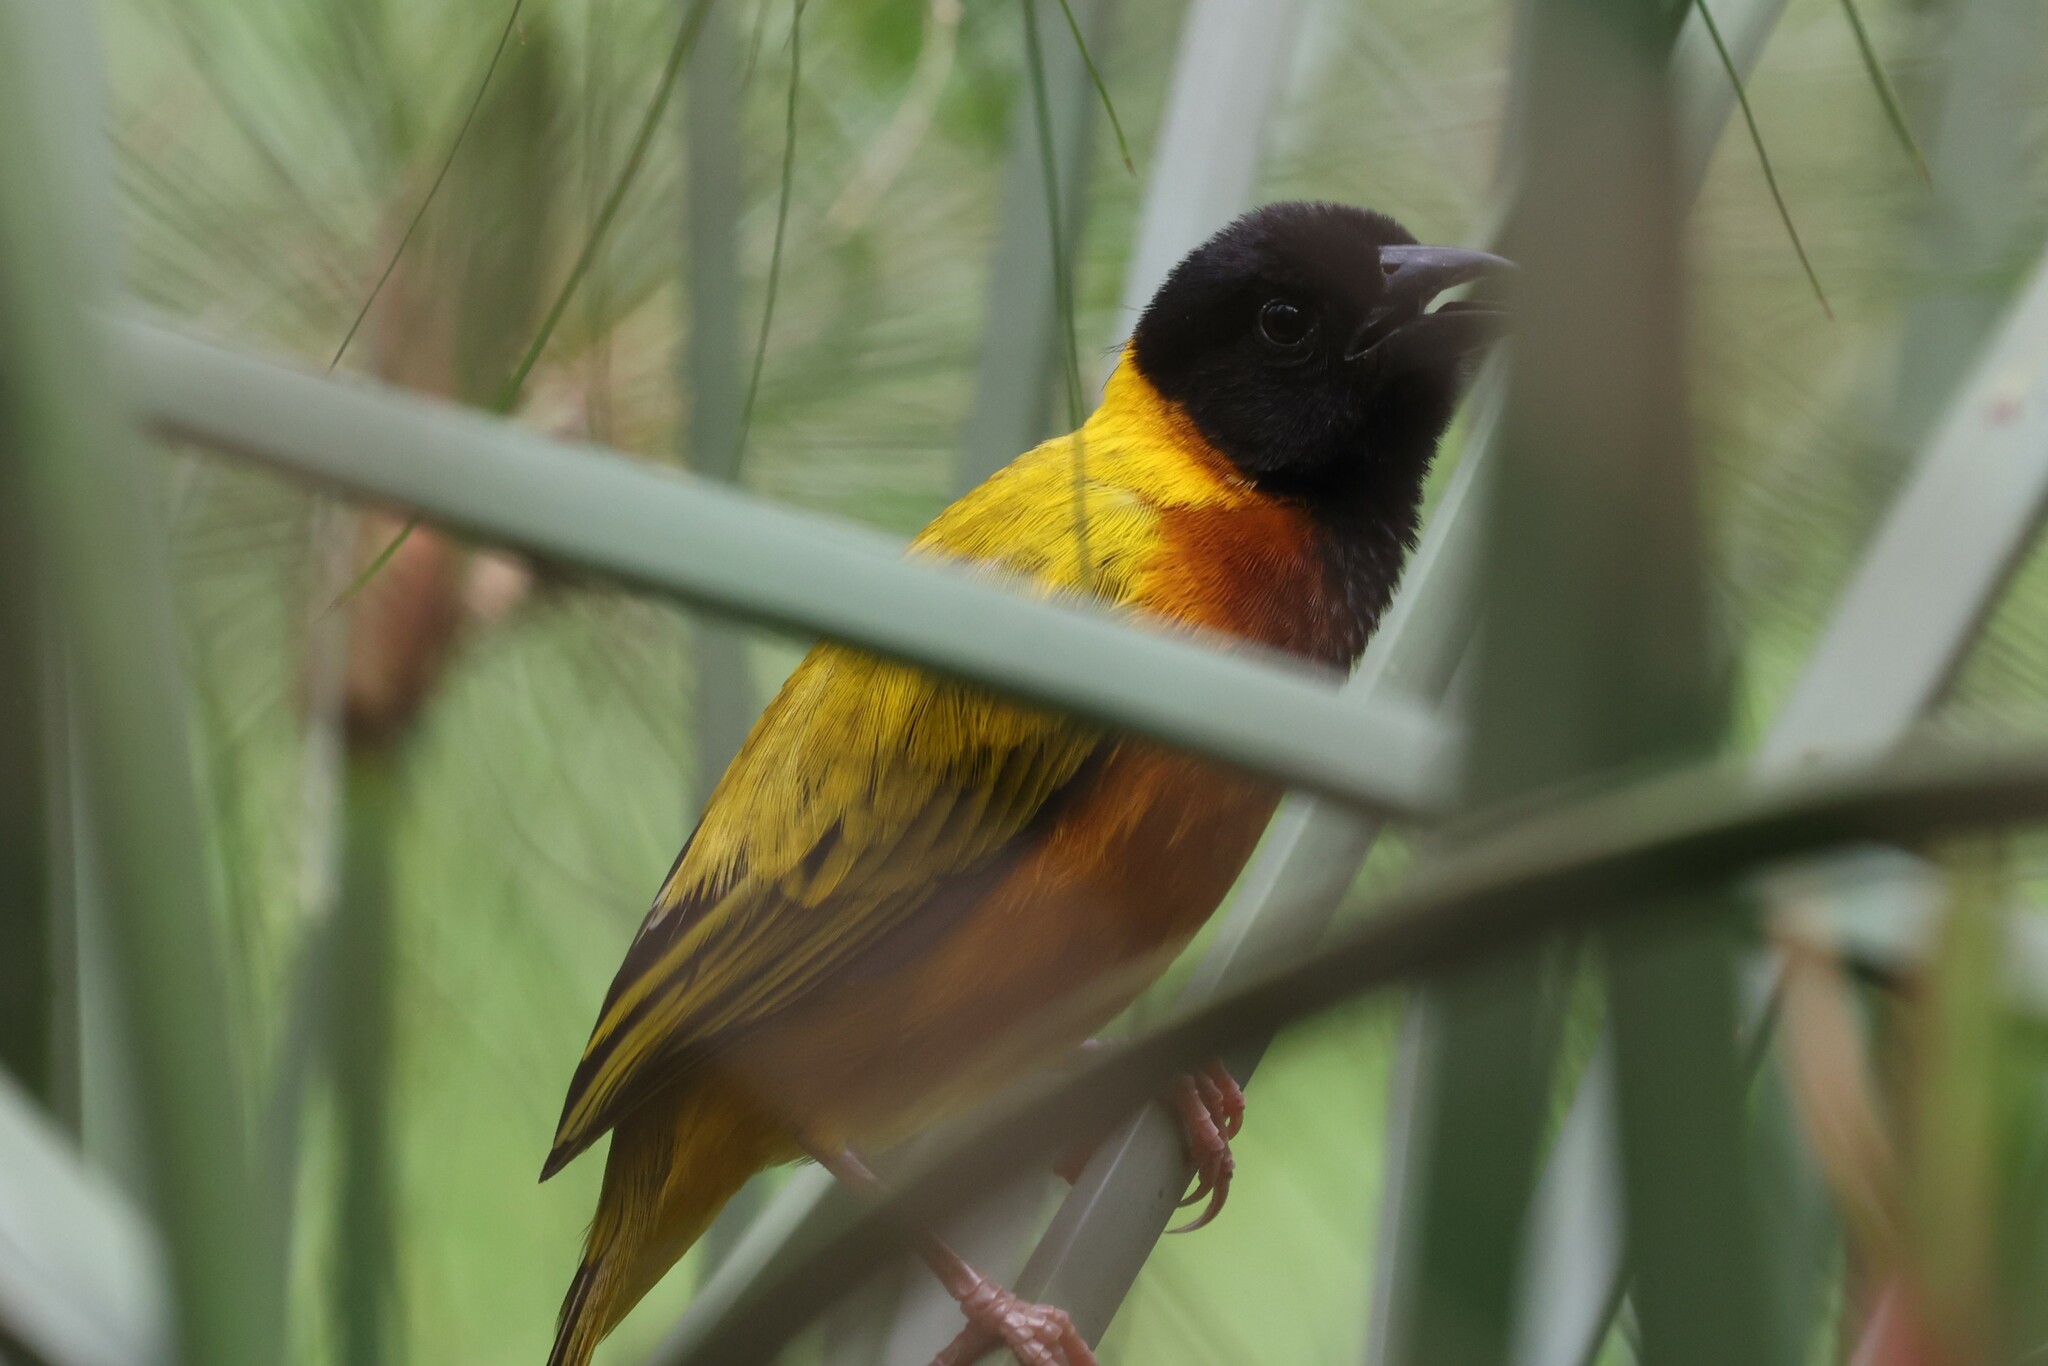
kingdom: Animalia
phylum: Chordata
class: Aves
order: Passeriformes
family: Ploceidae
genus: Ploceus
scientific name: Ploceus melanocephalus
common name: Black-headed weaver
